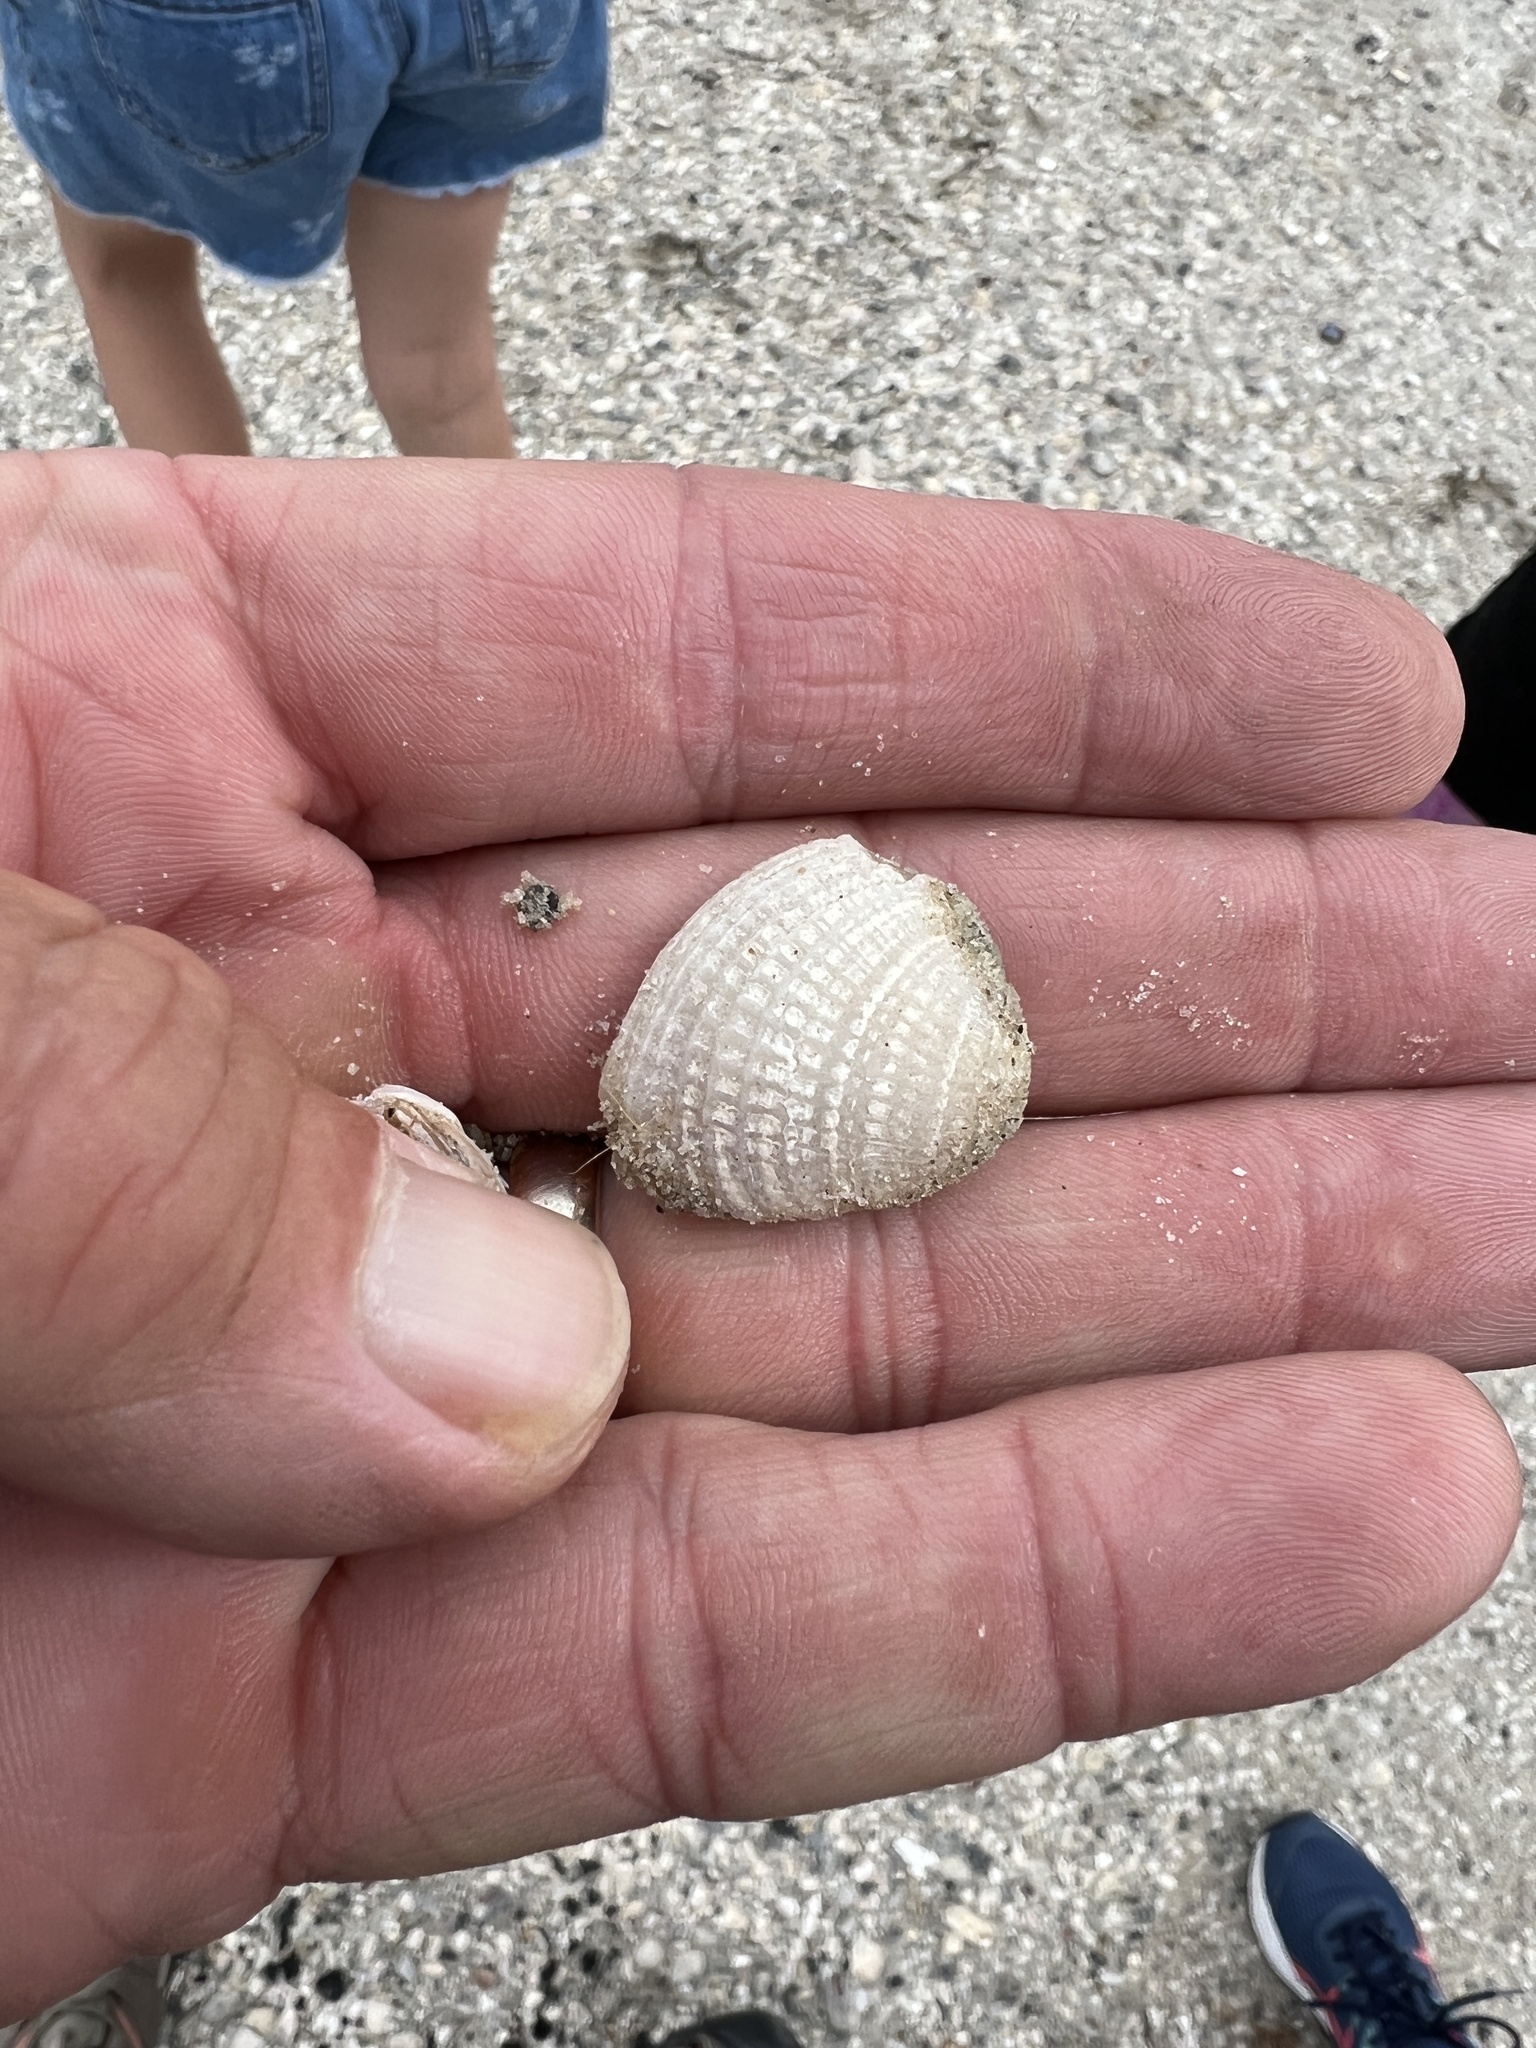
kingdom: Animalia
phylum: Mollusca
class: Bivalvia
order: Venerida
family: Veneridae
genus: Chione
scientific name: Chione elevata
